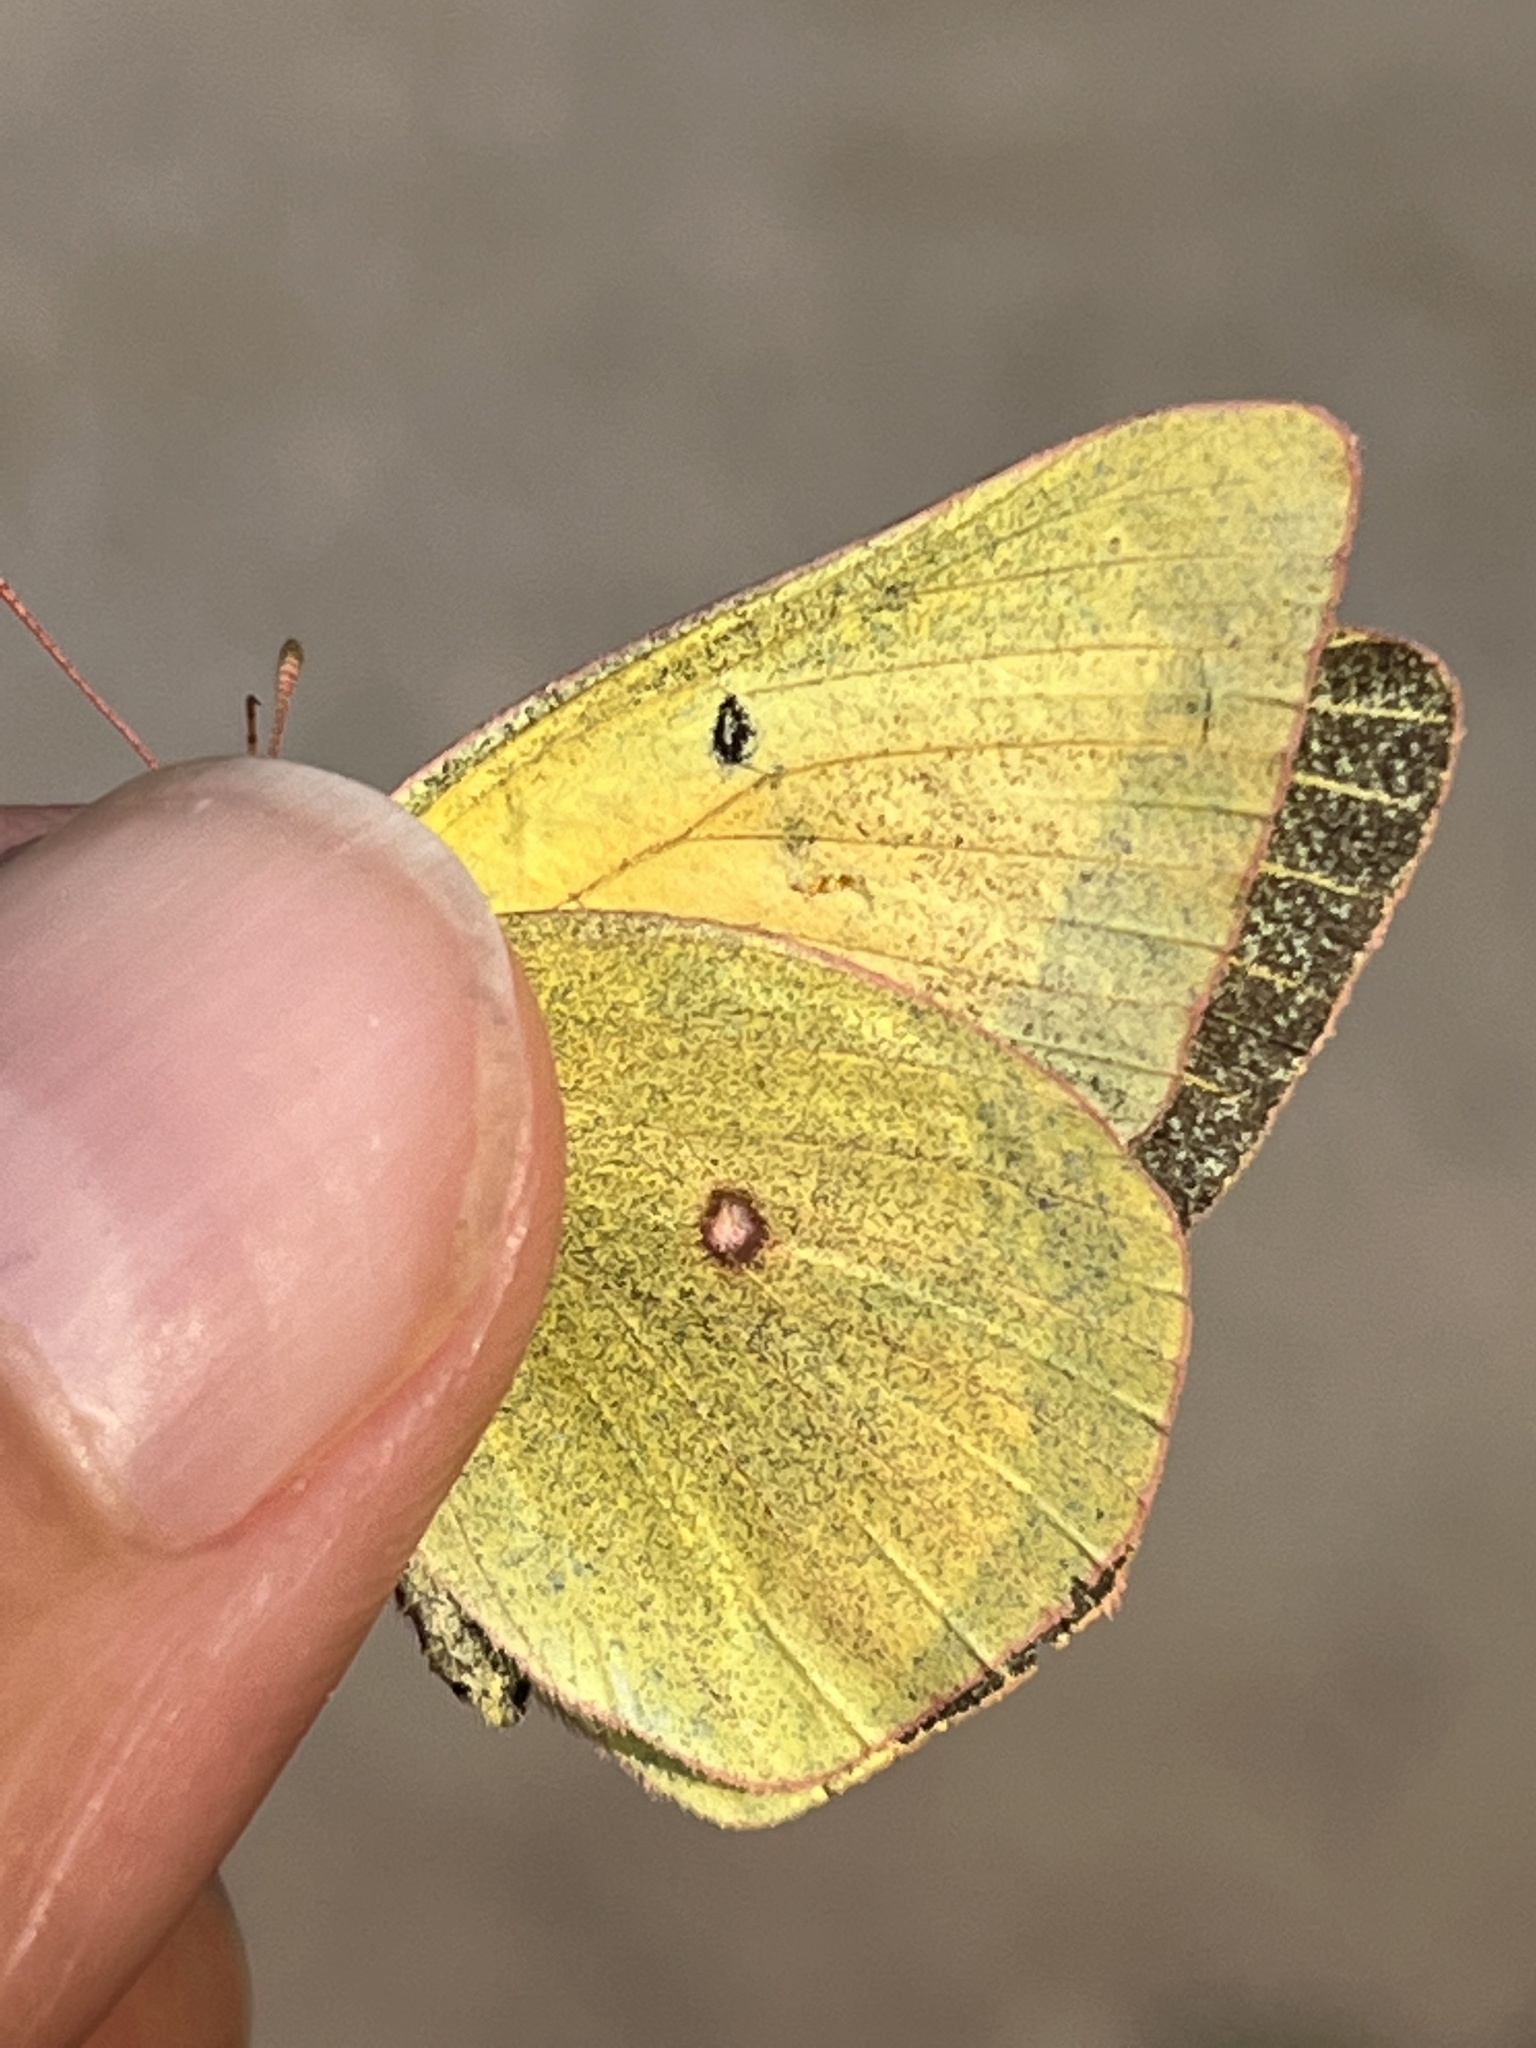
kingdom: Animalia
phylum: Arthropoda
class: Insecta
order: Lepidoptera
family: Pieridae
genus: Colias
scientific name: Colias christina
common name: Christina sulphur
